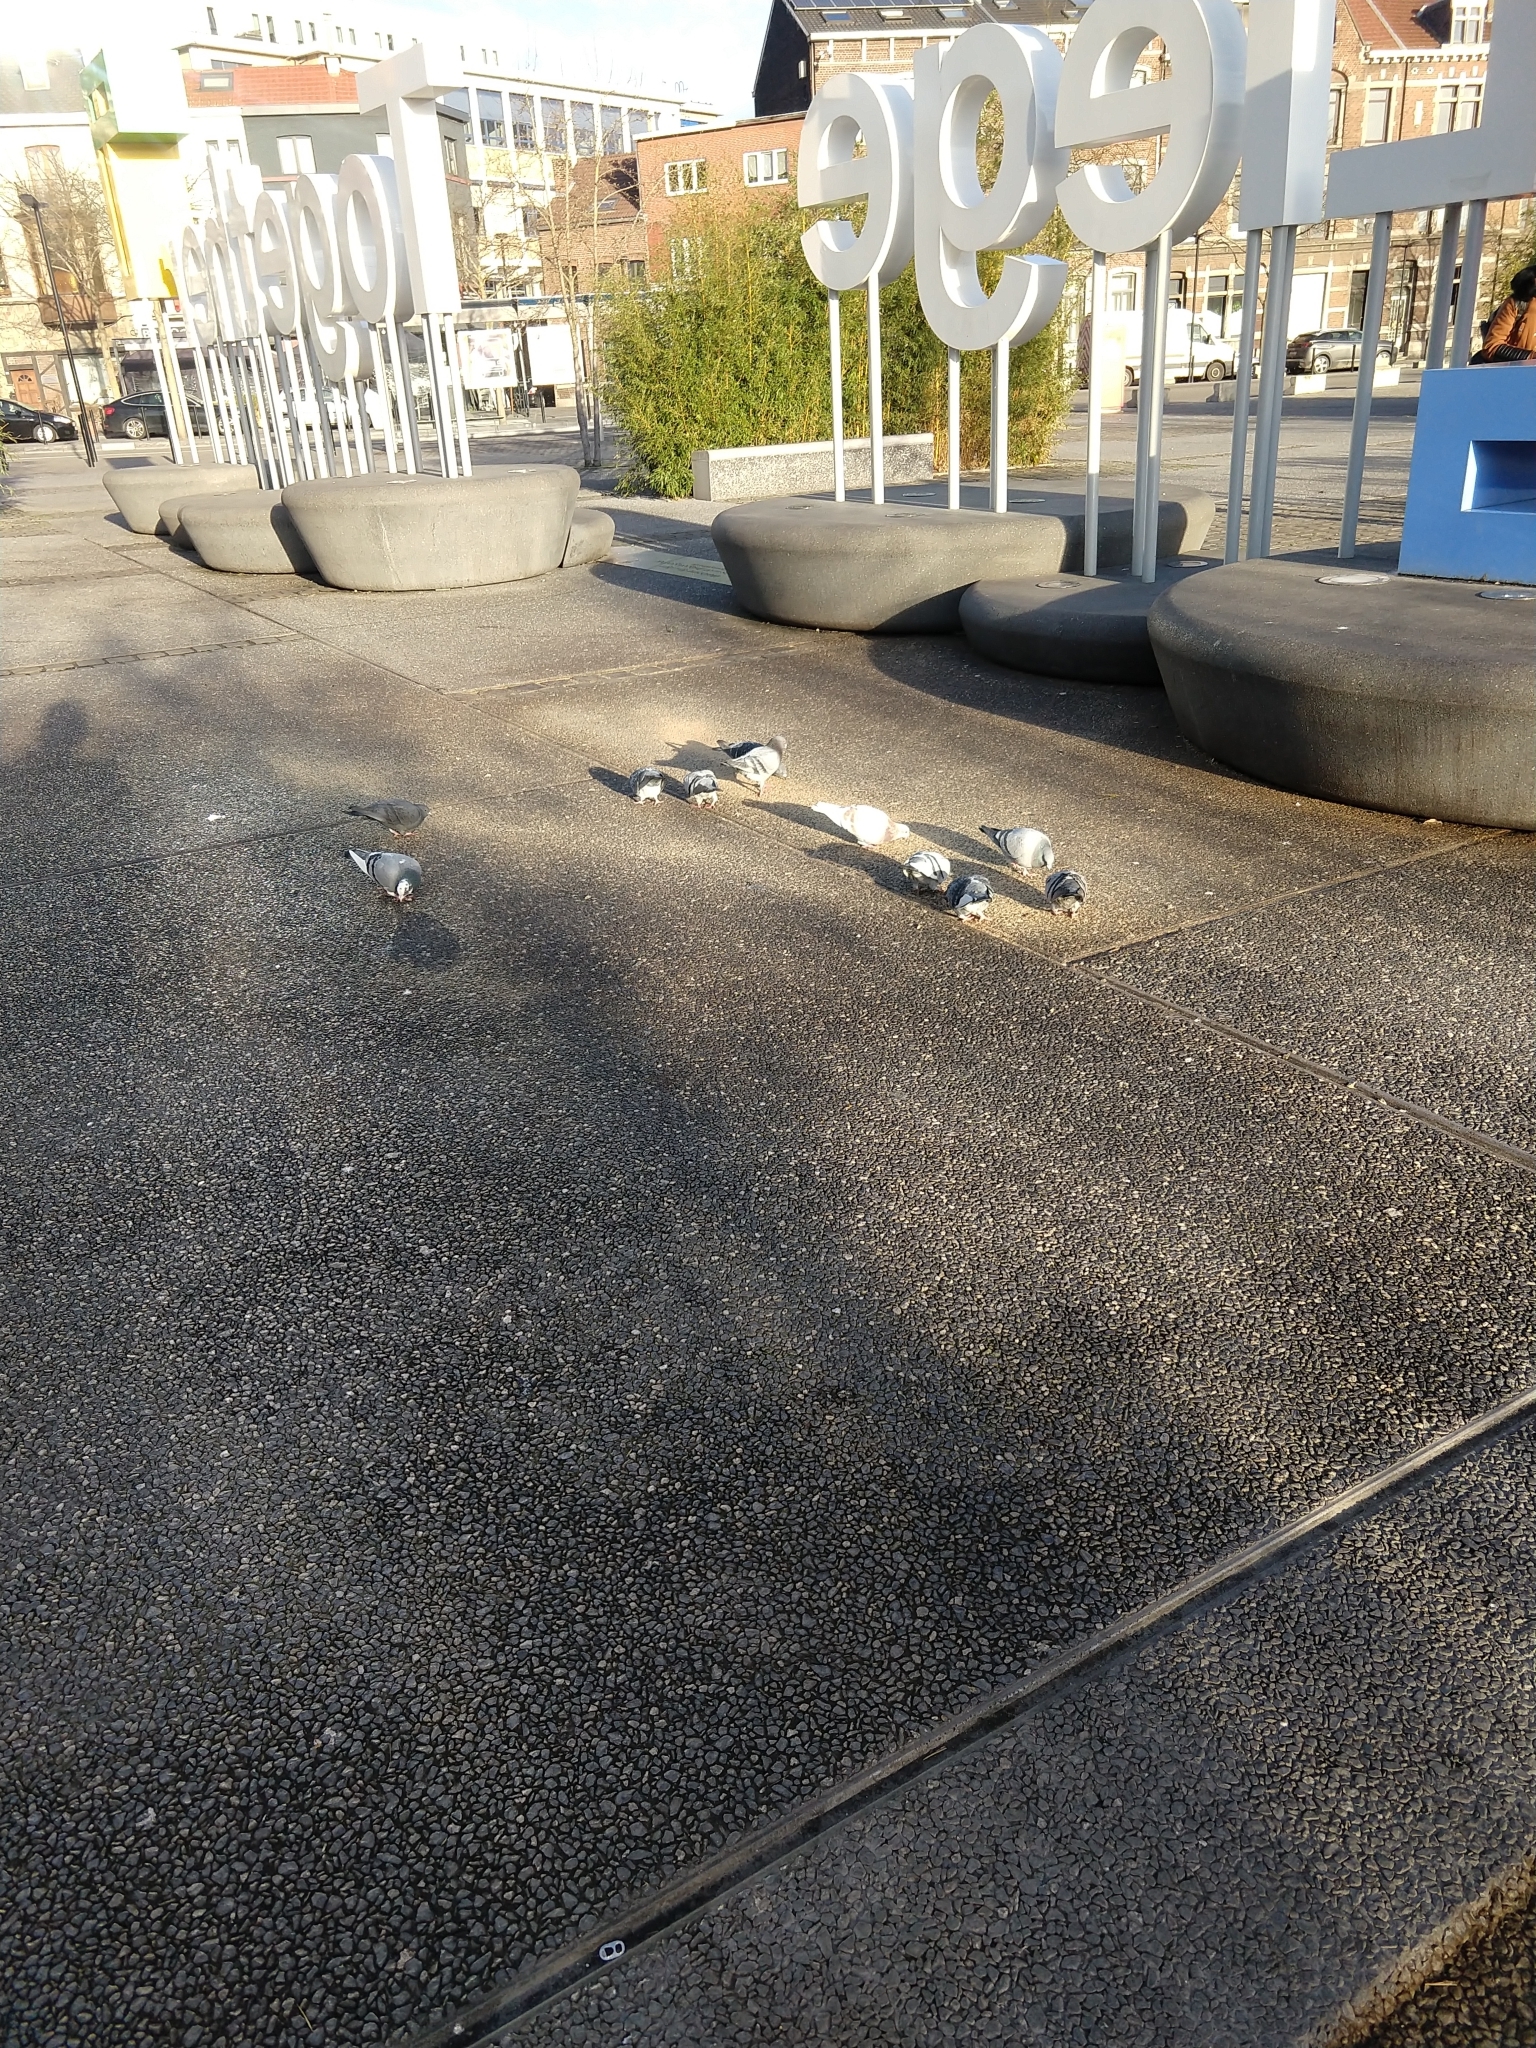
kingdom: Animalia
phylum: Chordata
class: Aves
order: Columbiformes
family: Columbidae
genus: Columba
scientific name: Columba livia
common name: Rock pigeon
